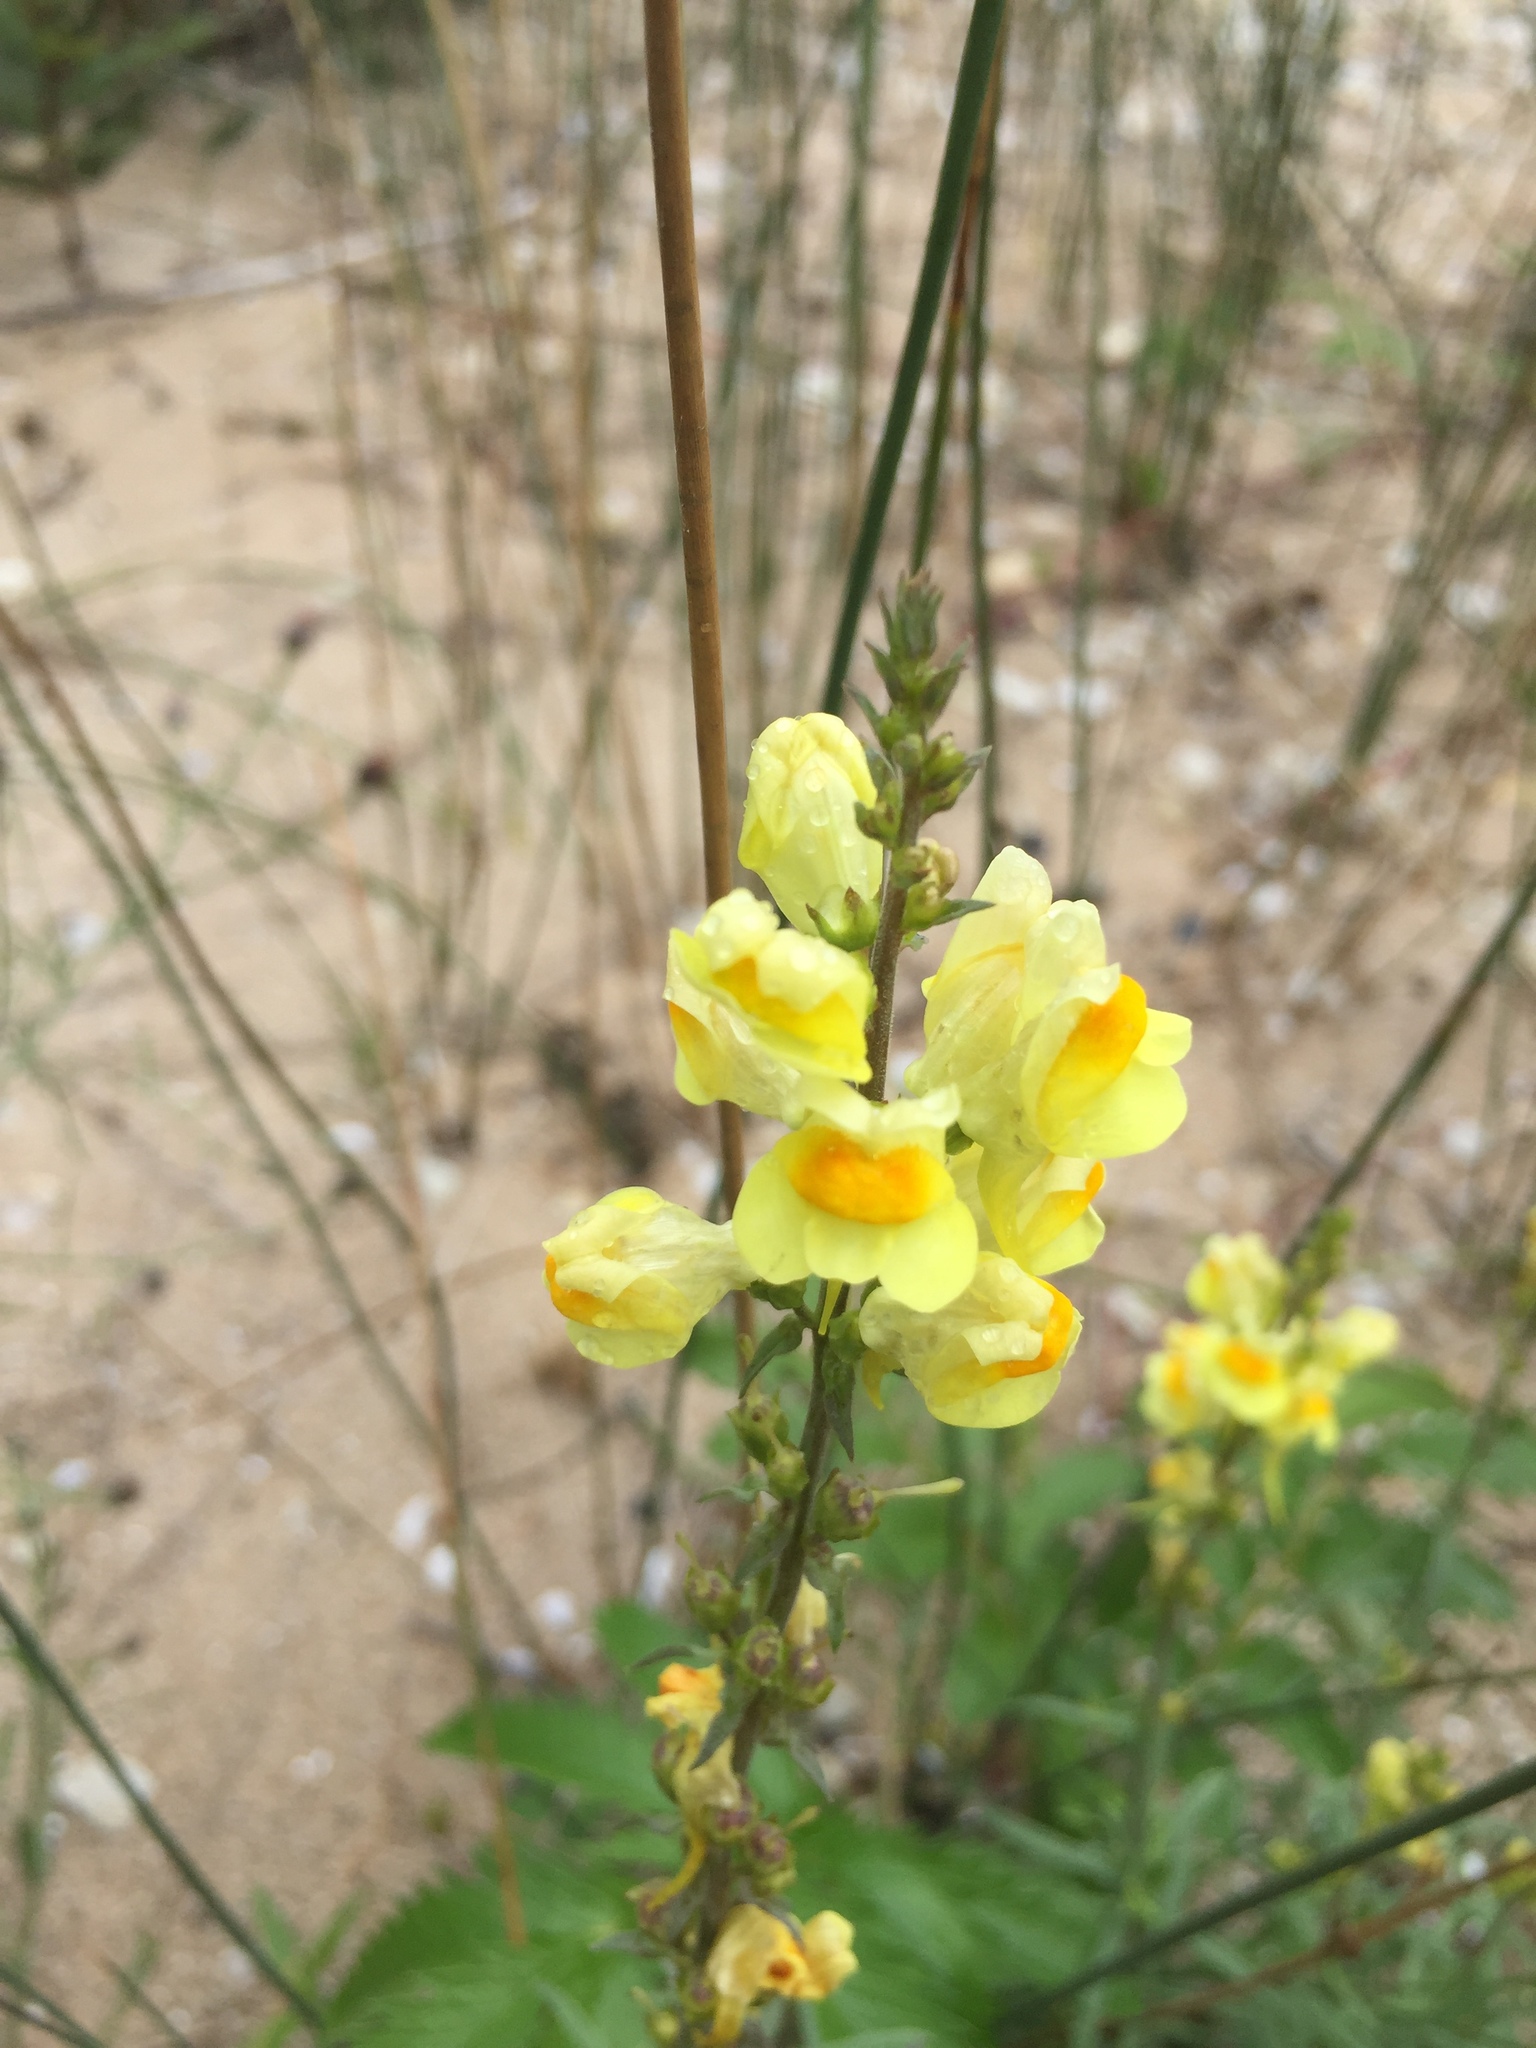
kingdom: Plantae
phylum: Tracheophyta
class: Magnoliopsida
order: Lamiales
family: Plantaginaceae
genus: Linaria
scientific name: Linaria vulgaris
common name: Butter and eggs
